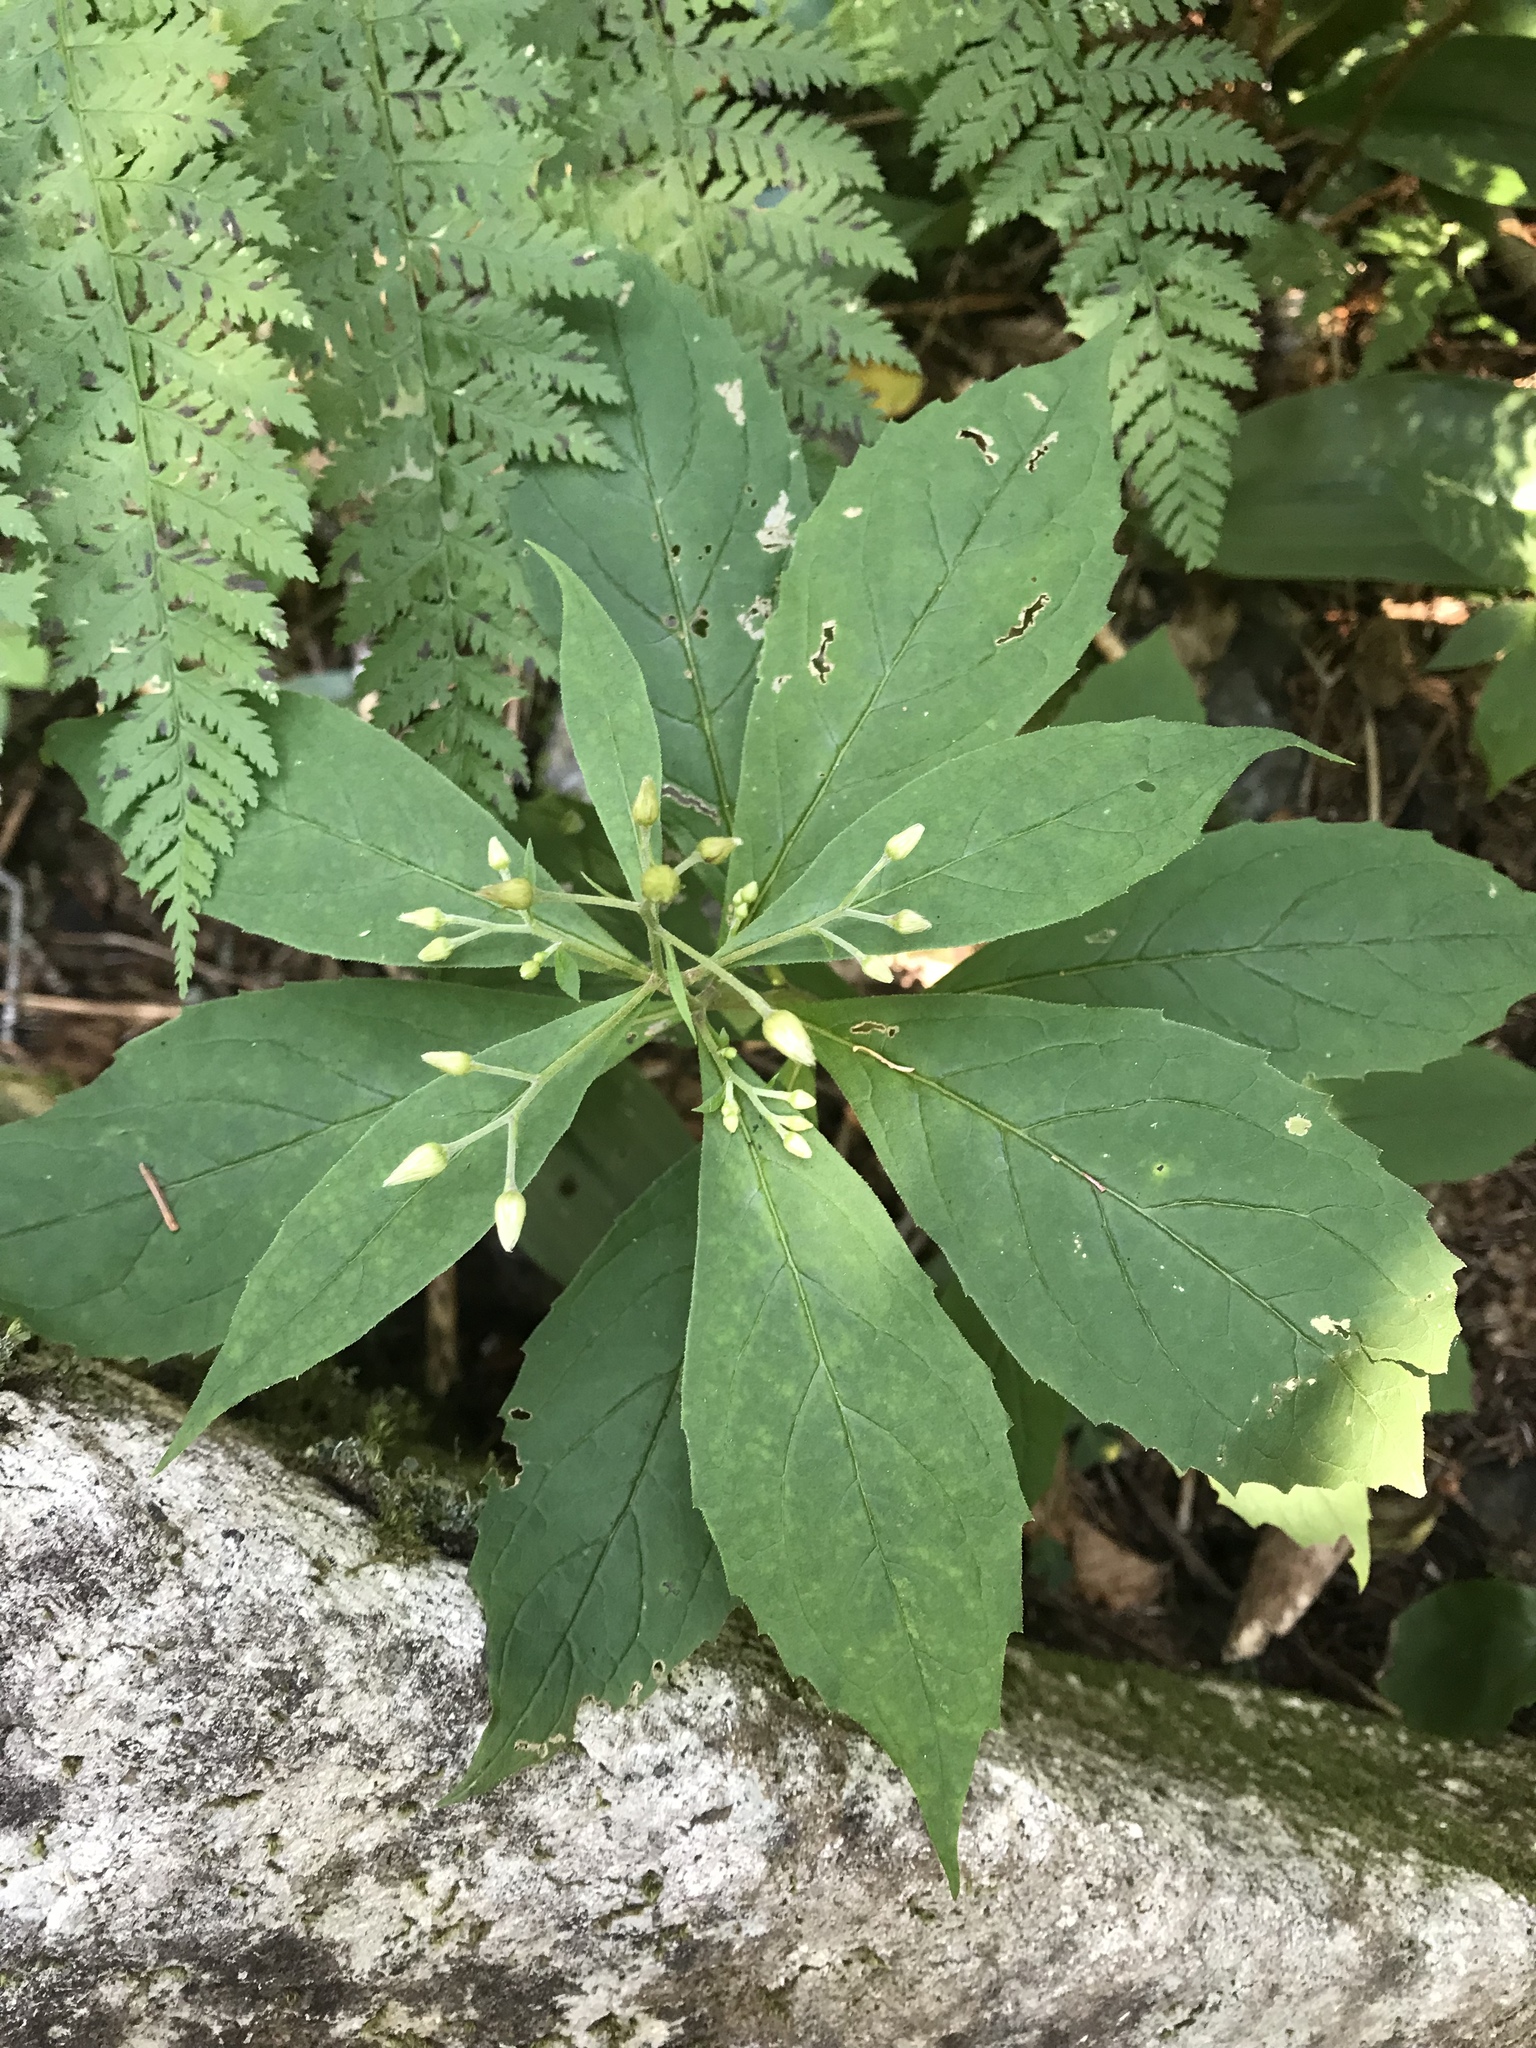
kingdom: Plantae
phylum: Tracheophyta
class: Magnoliopsida
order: Asterales
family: Asteraceae
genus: Oclemena
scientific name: Oclemena acuminata
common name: Mountain aster
